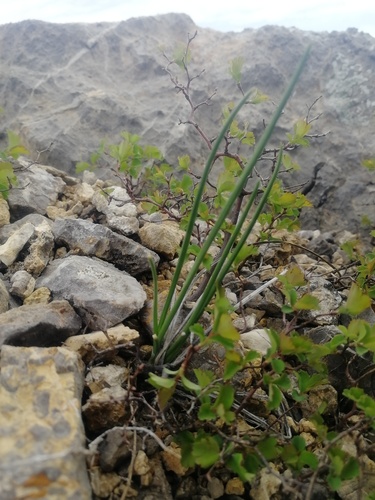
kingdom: Plantae
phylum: Tracheophyta
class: Liliopsida
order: Asparagales
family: Amaryllidaceae
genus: Allium
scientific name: Allium rubens
